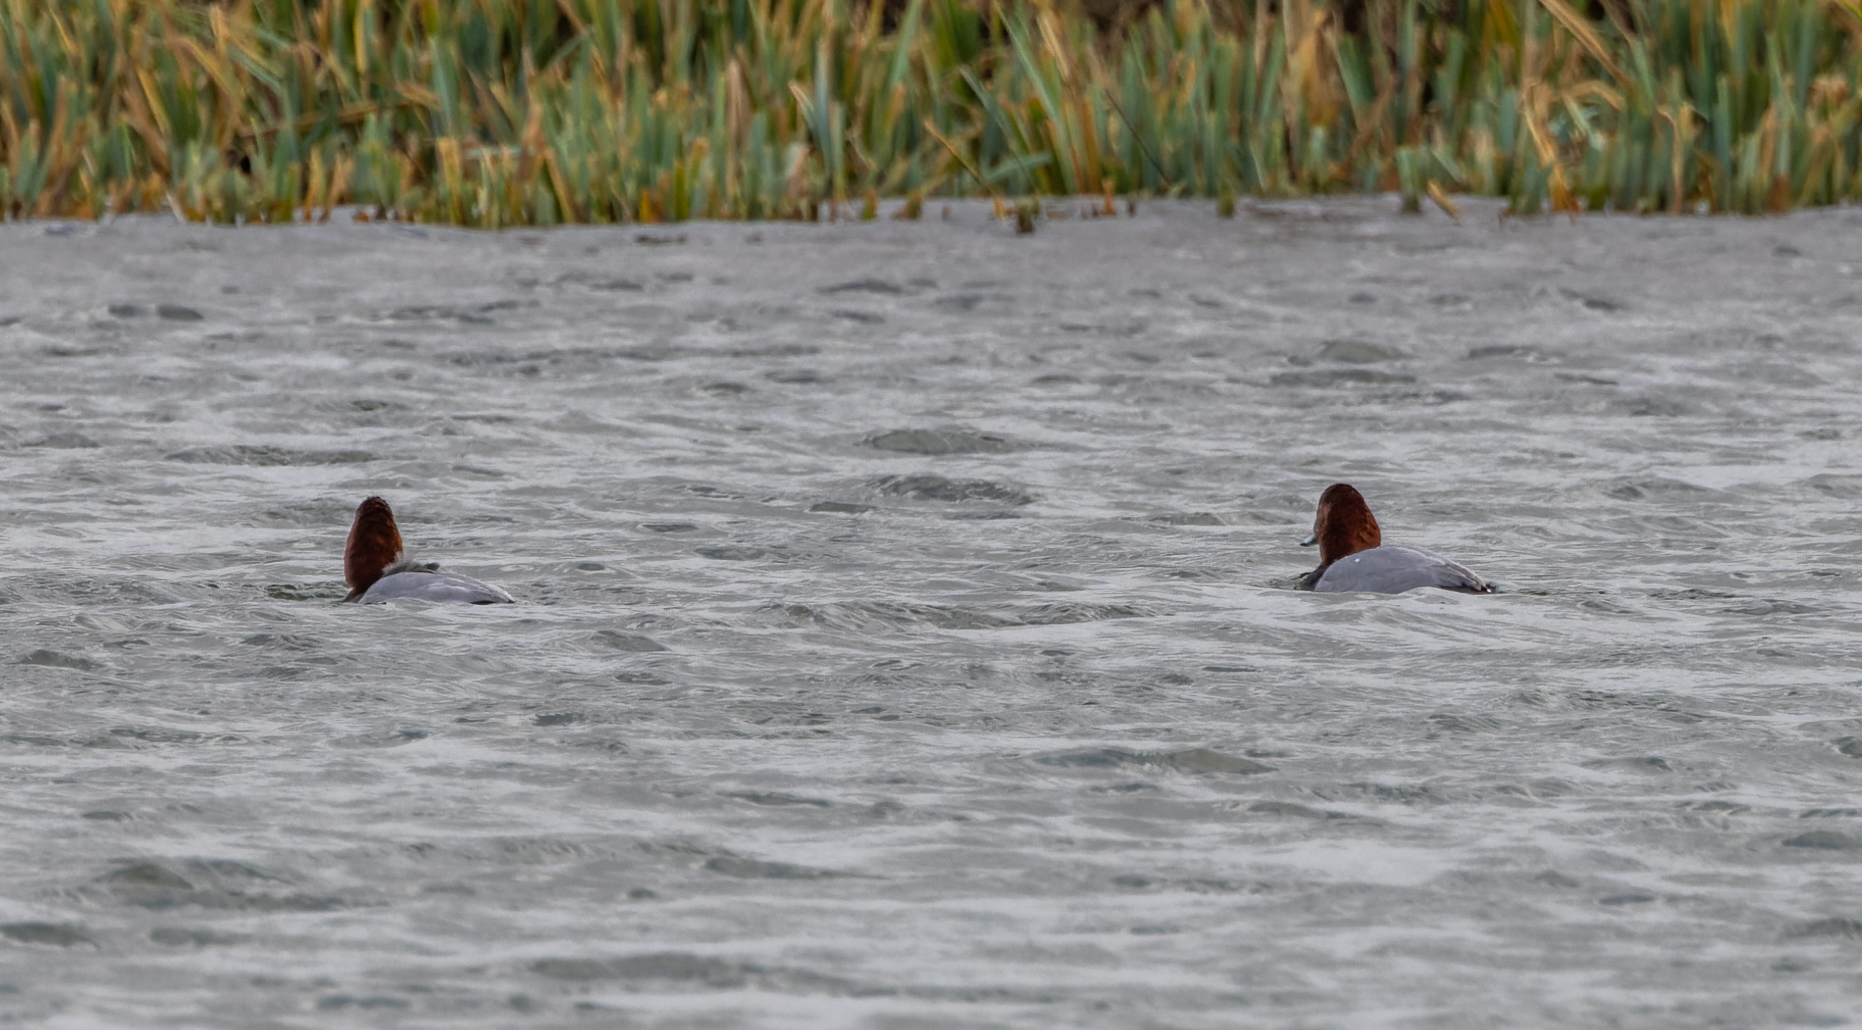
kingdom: Animalia
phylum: Chordata
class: Aves
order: Anseriformes
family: Anatidae
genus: Aythya
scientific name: Aythya ferina
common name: Common pochard
